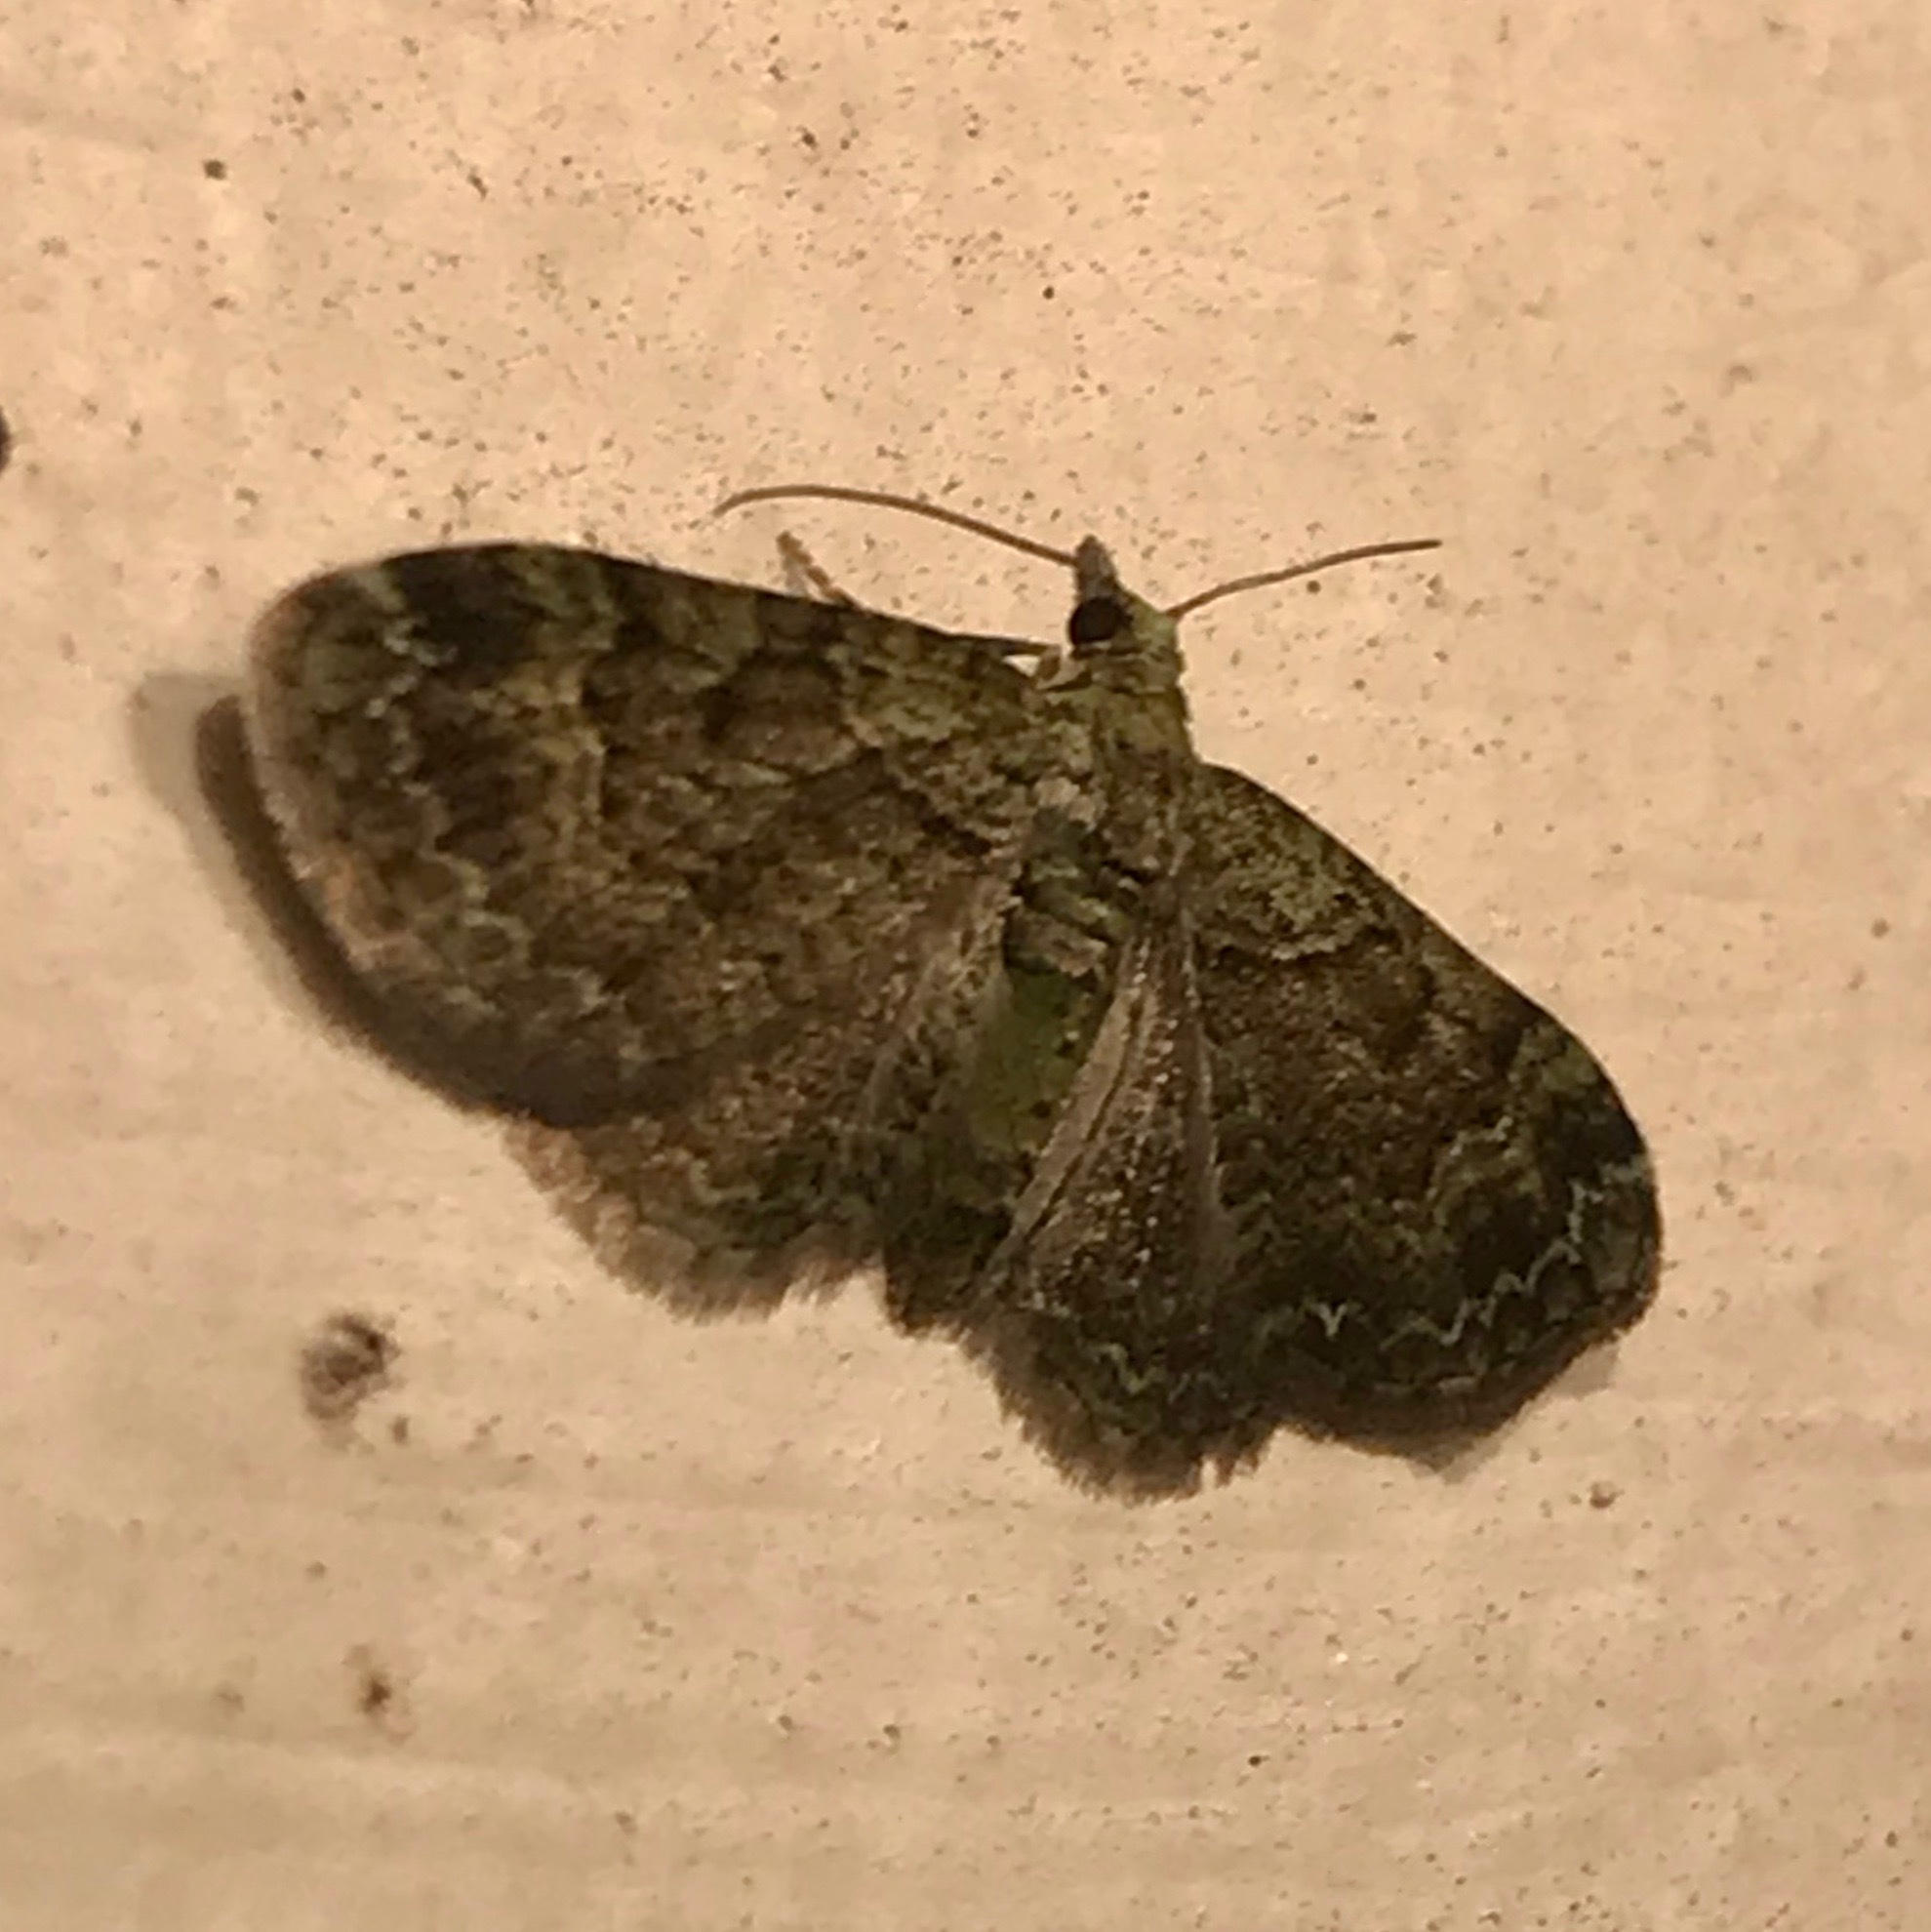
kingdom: Animalia
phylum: Arthropoda
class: Insecta
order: Lepidoptera
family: Geometridae
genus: Pasiphila
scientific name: Pasiphila rectangulata
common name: Green pug
